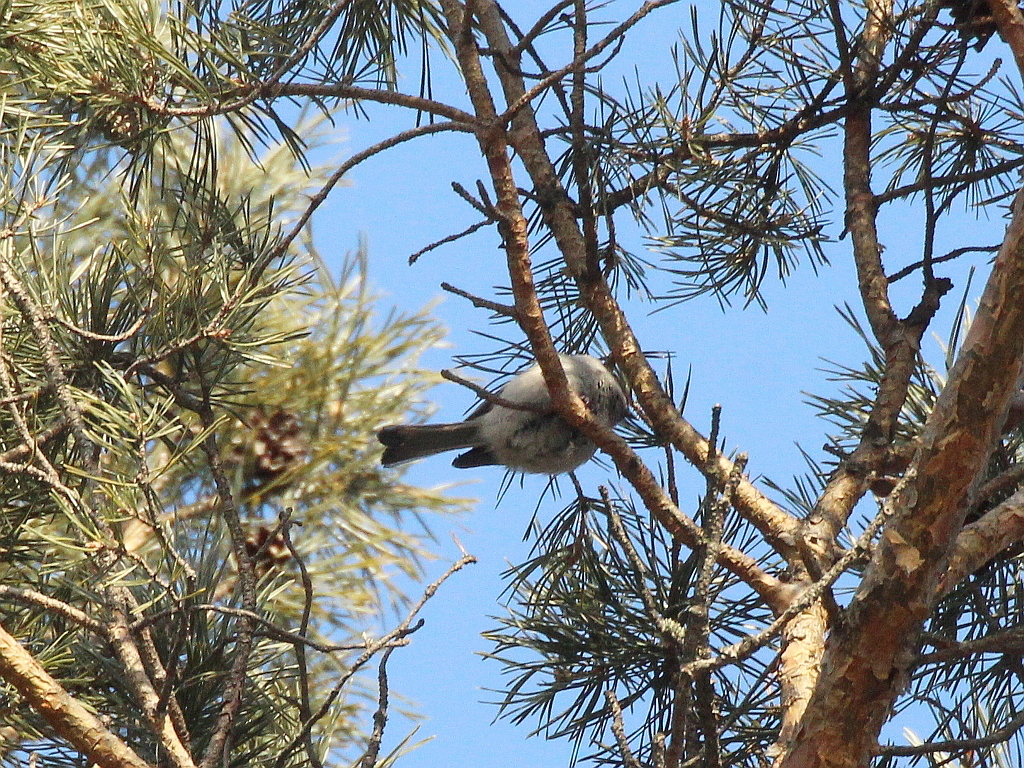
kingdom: Animalia
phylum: Chordata
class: Aves
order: Passeriformes
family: Paridae
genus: Poecile
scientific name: Poecile montanus
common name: Willow tit
